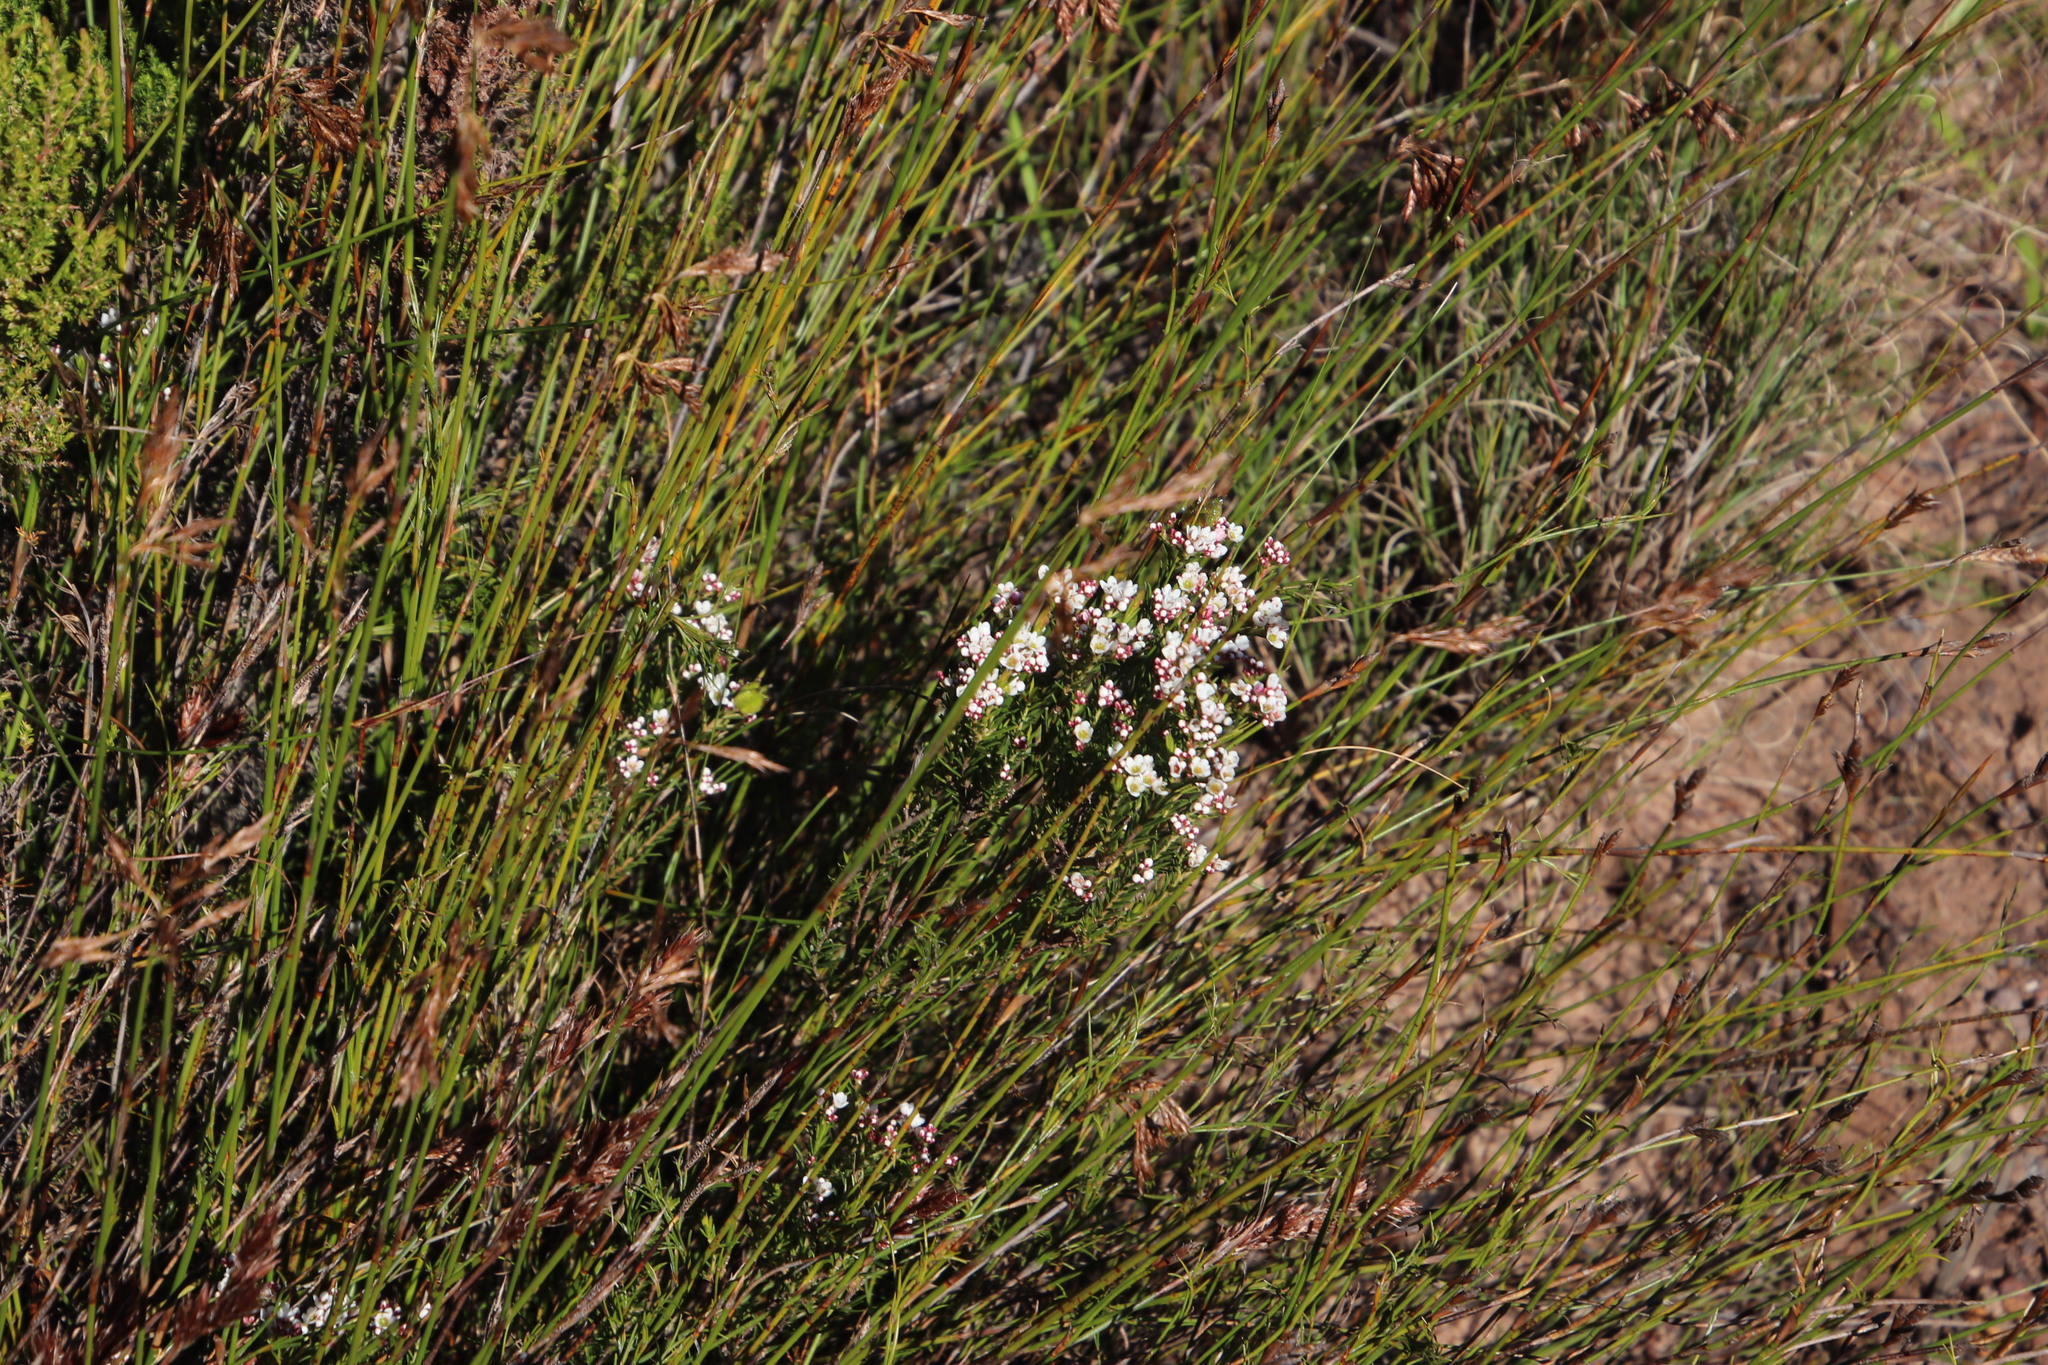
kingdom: Plantae
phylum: Tracheophyta
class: Magnoliopsida
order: Sapindales
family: Rutaceae
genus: Diosma
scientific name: Diosma hirsuta
